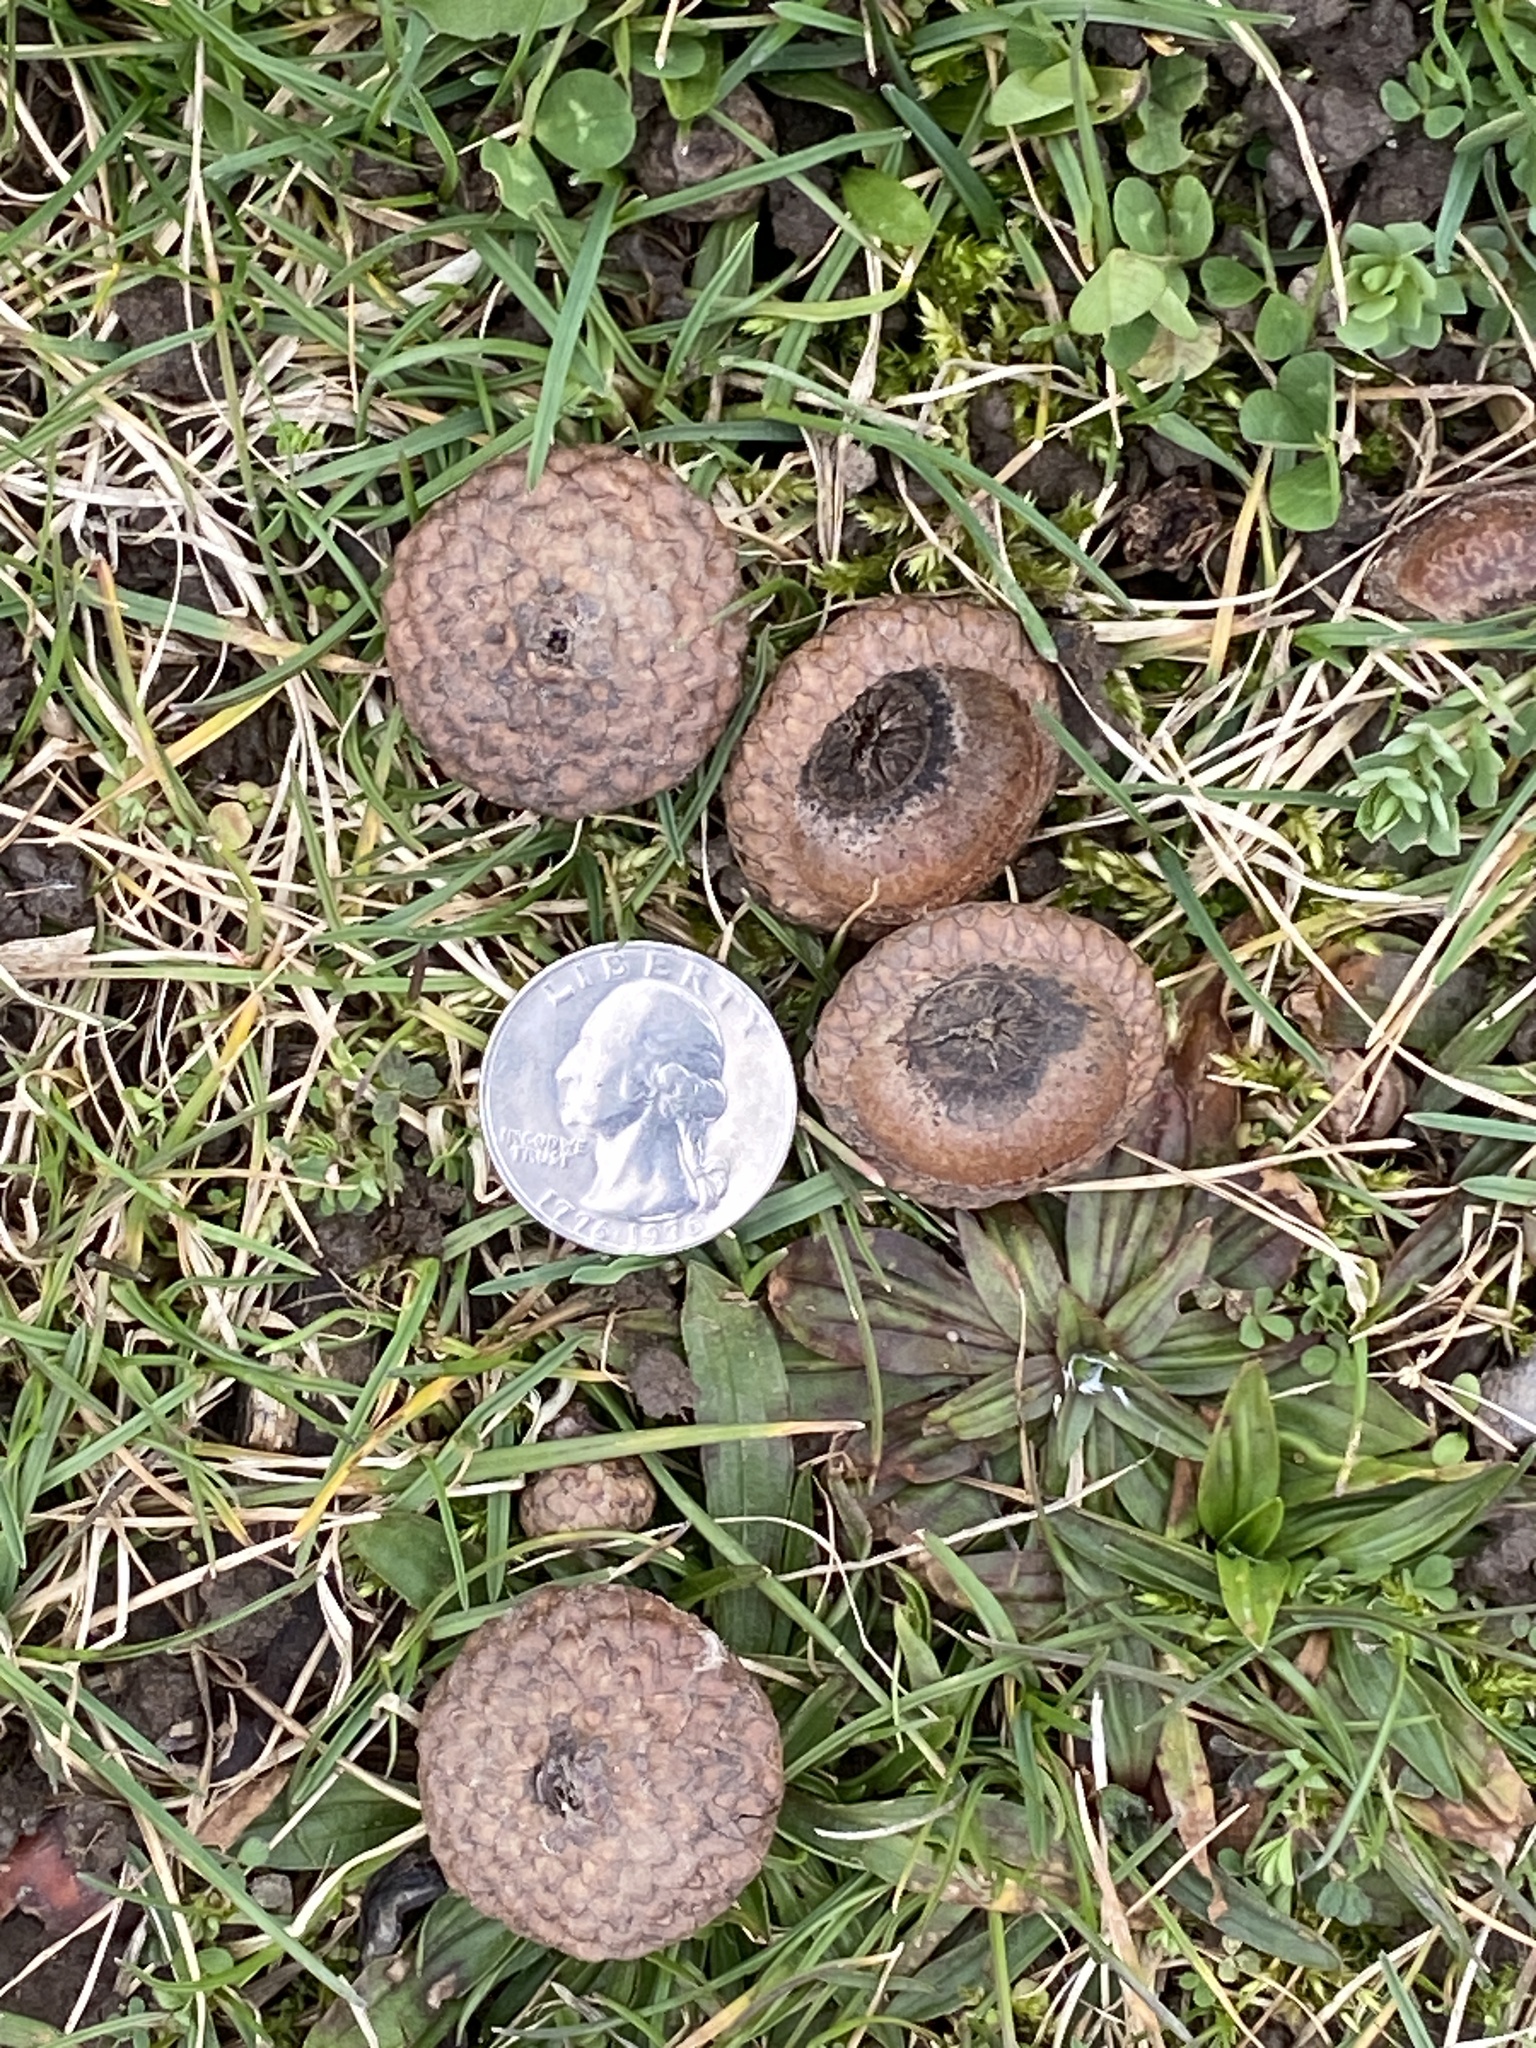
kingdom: Plantae
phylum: Tracheophyta
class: Magnoliopsida
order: Fagales
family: Fagaceae
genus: Quercus
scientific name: Quercus rubra
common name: Red oak
